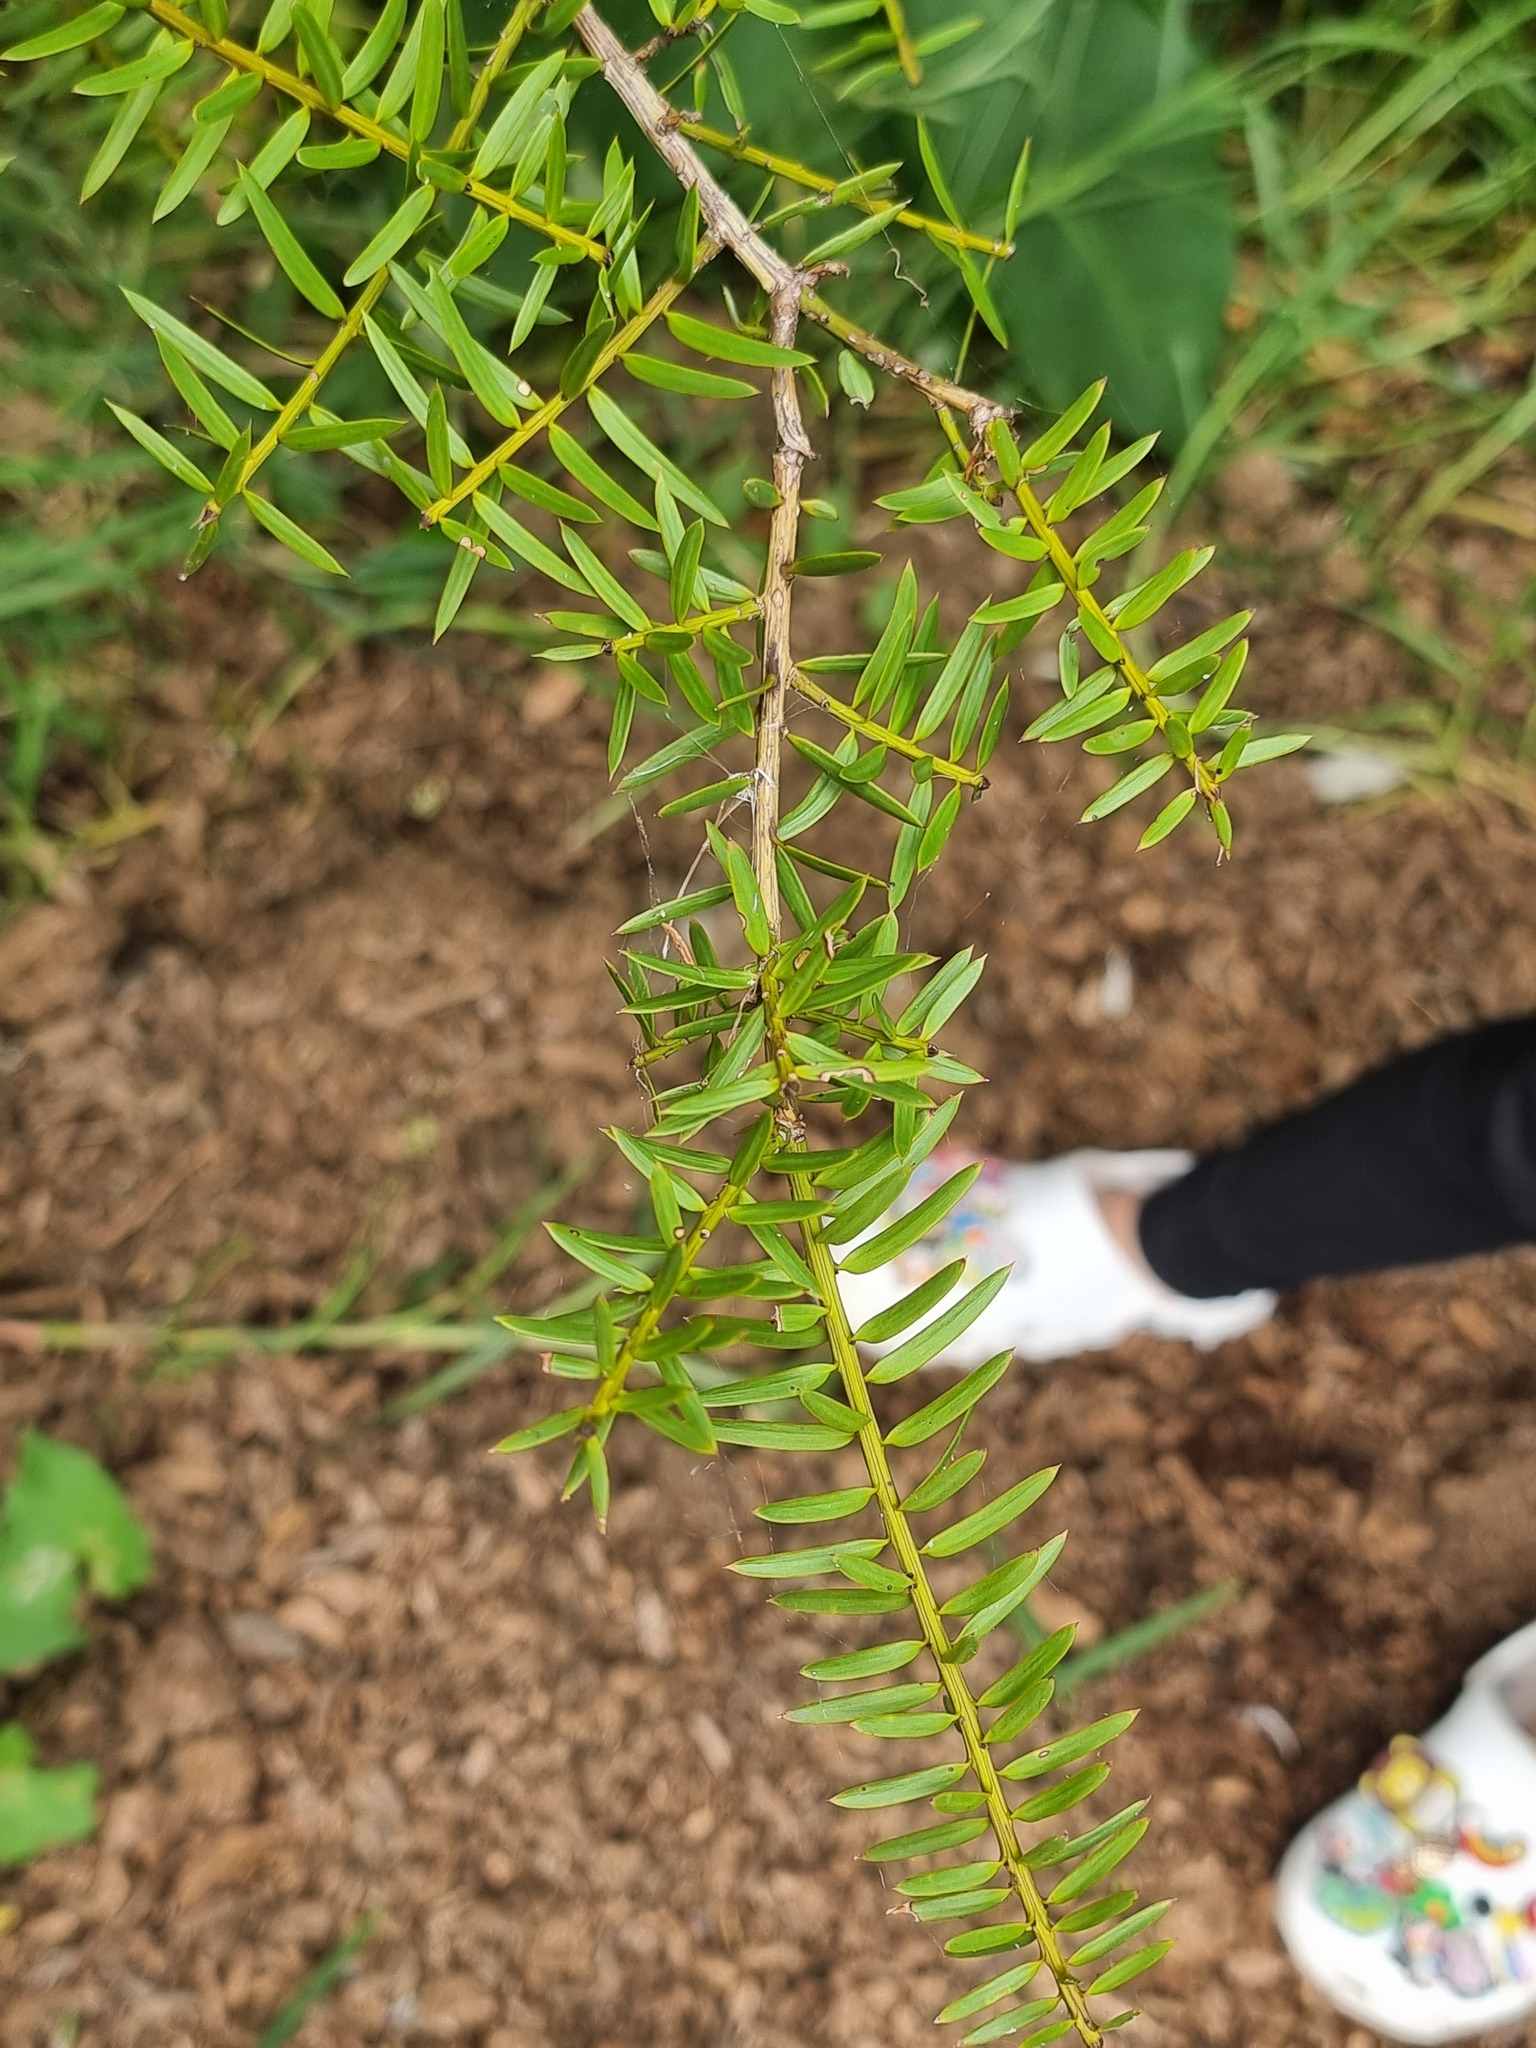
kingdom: Plantae
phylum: Tracheophyta
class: Pinopsida
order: Pinales
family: Podocarpaceae
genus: Podocarpus
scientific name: Podocarpus totara
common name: Totara
